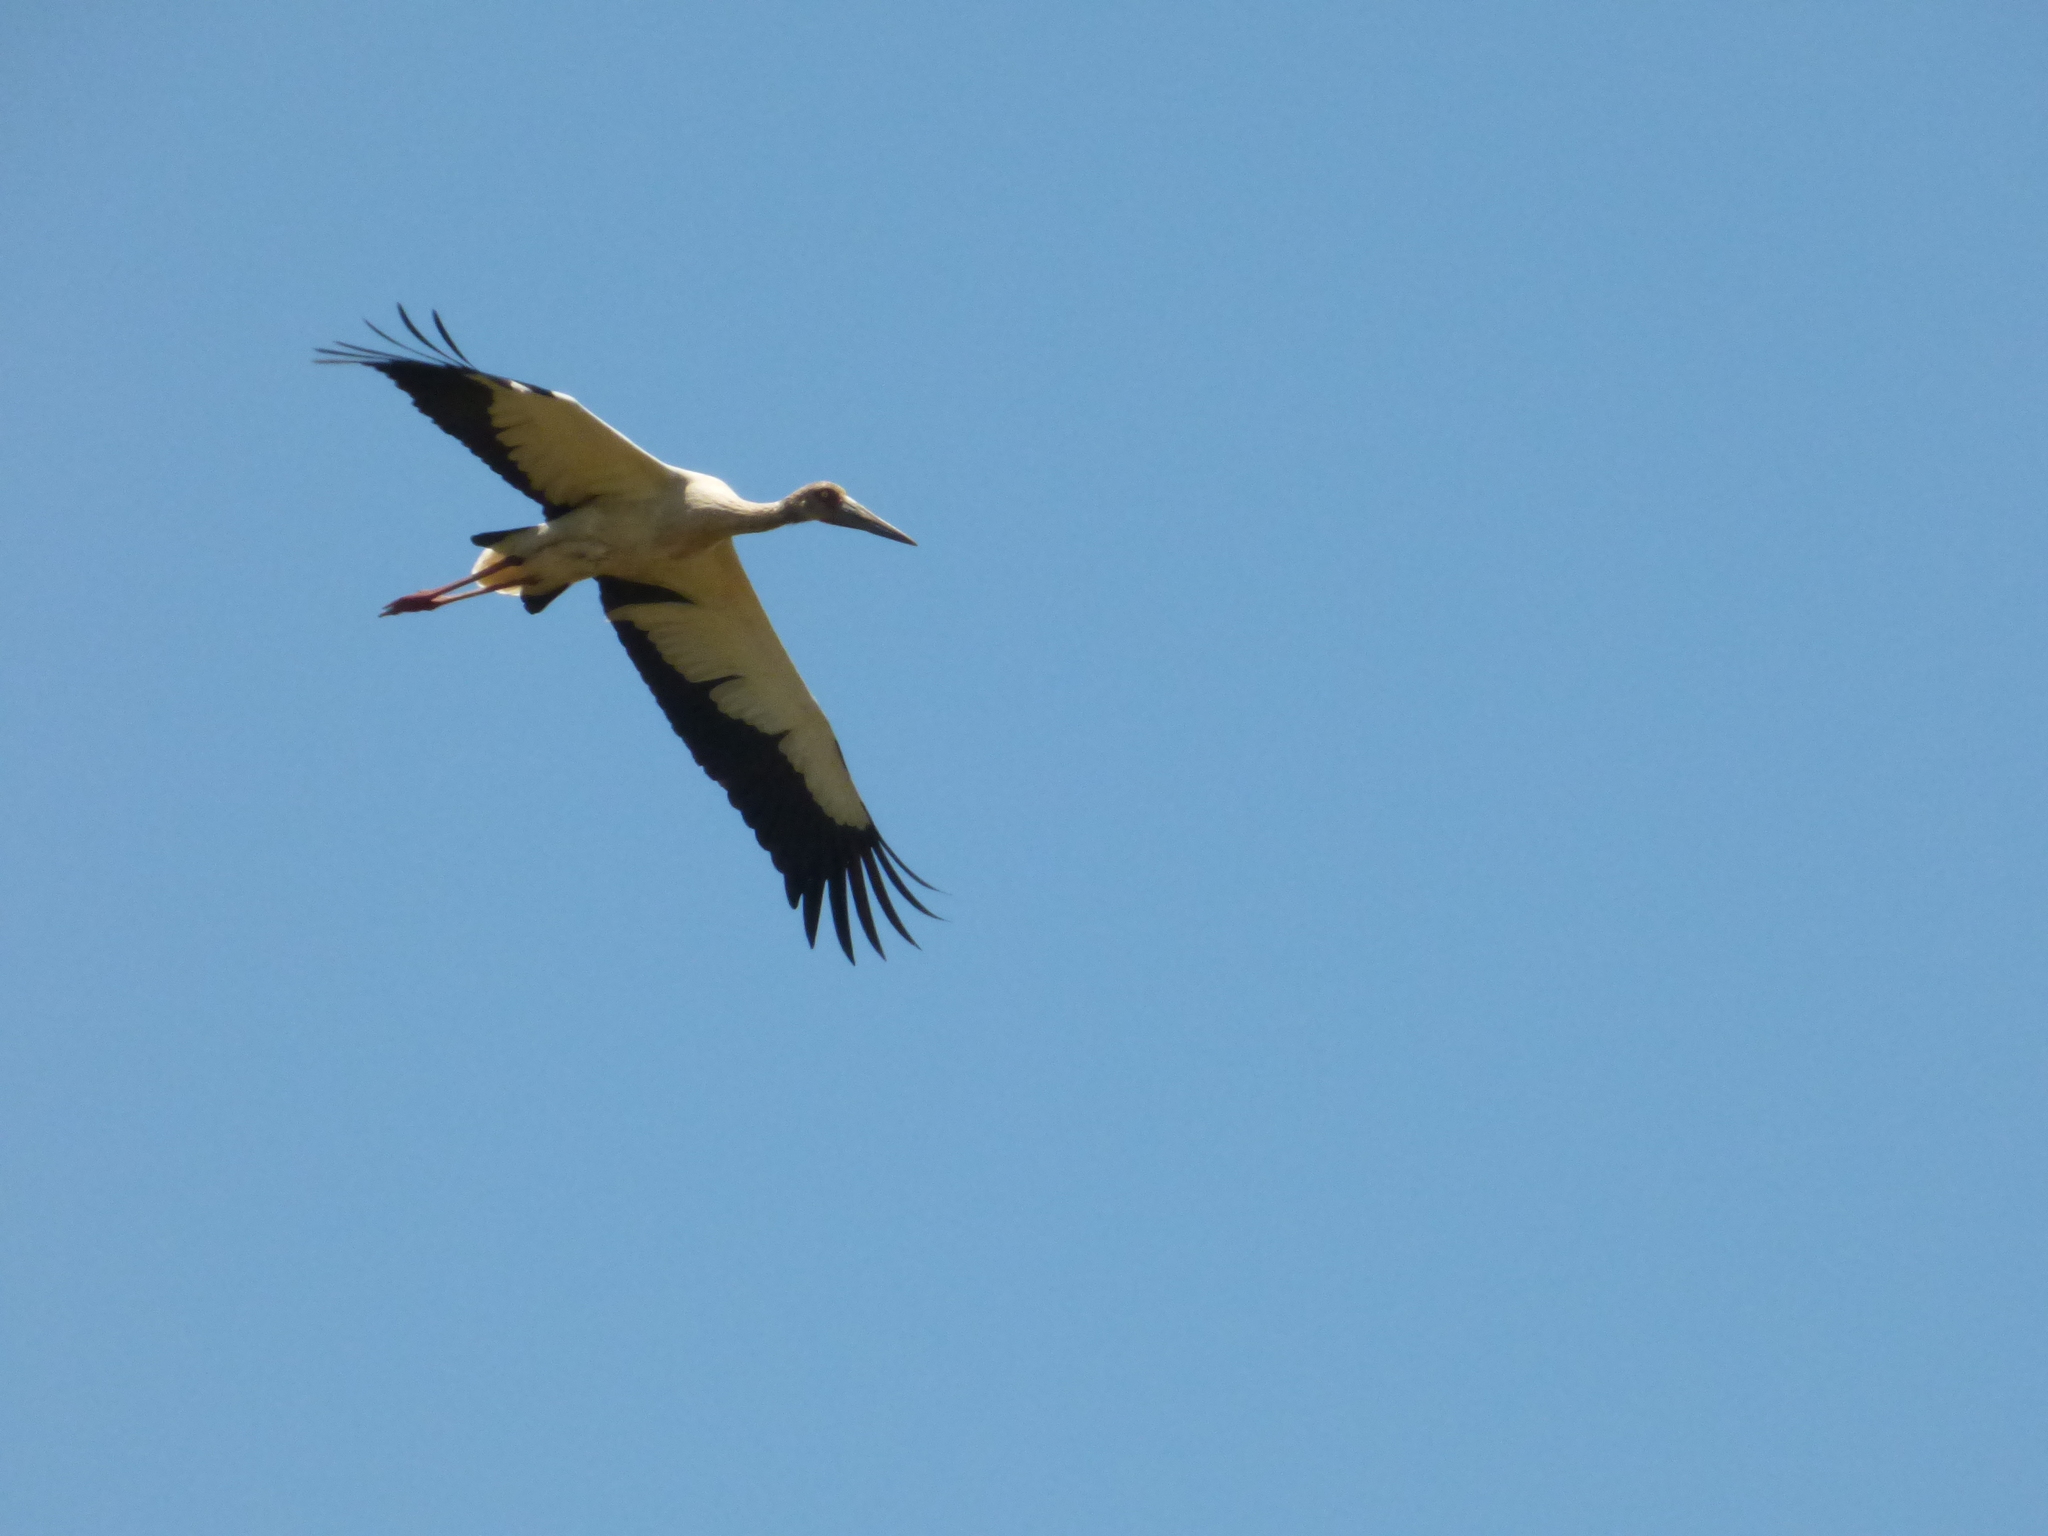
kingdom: Animalia
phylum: Chordata
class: Aves
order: Ciconiiformes
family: Ciconiidae
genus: Ciconia
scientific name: Ciconia maguari
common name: Maguari stork
